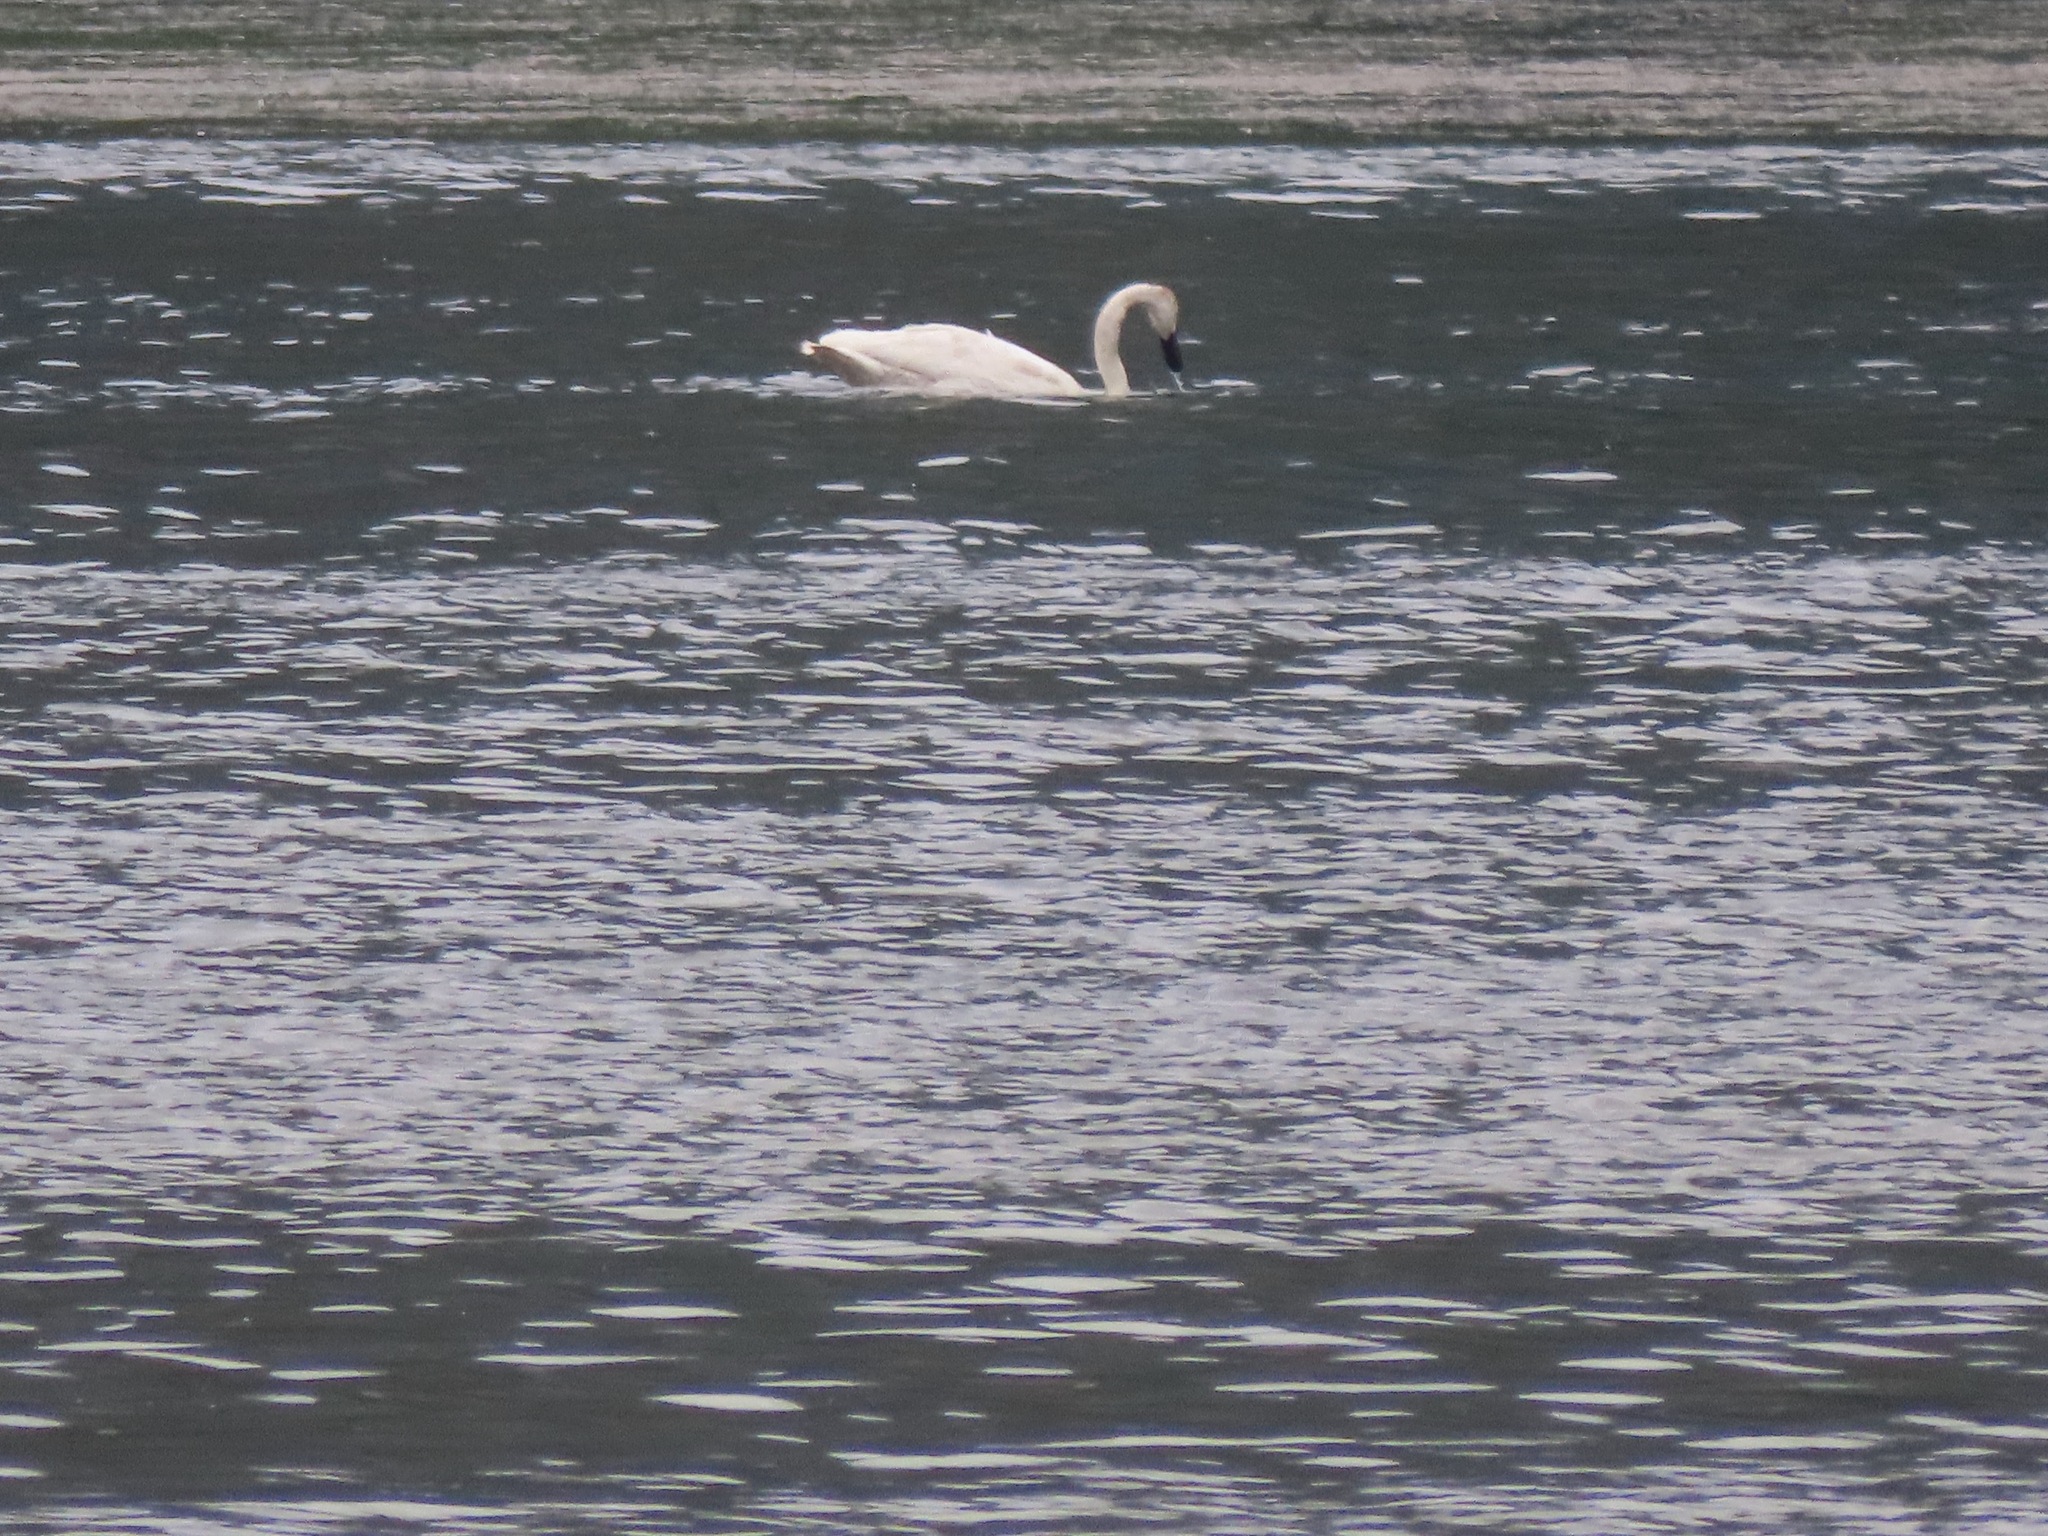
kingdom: Animalia
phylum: Chordata
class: Aves
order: Anseriformes
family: Anatidae
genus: Cygnus
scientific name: Cygnus buccinator
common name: Trumpeter swan
